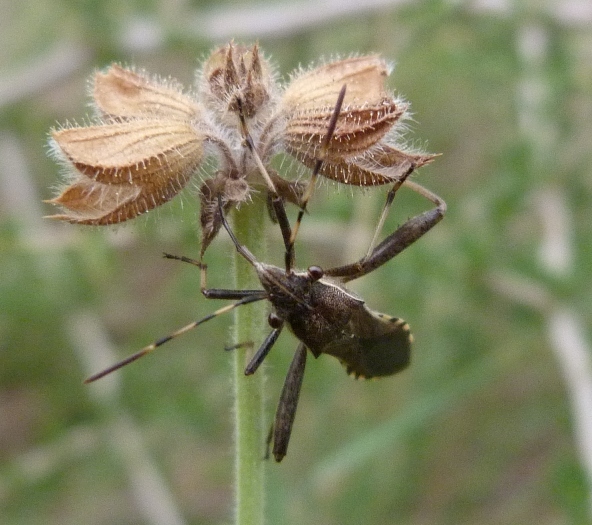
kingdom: Animalia
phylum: Arthropoda
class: Insecta
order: Hemiptera
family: Alydidae
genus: Camptopus
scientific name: Camptopus lateralis
